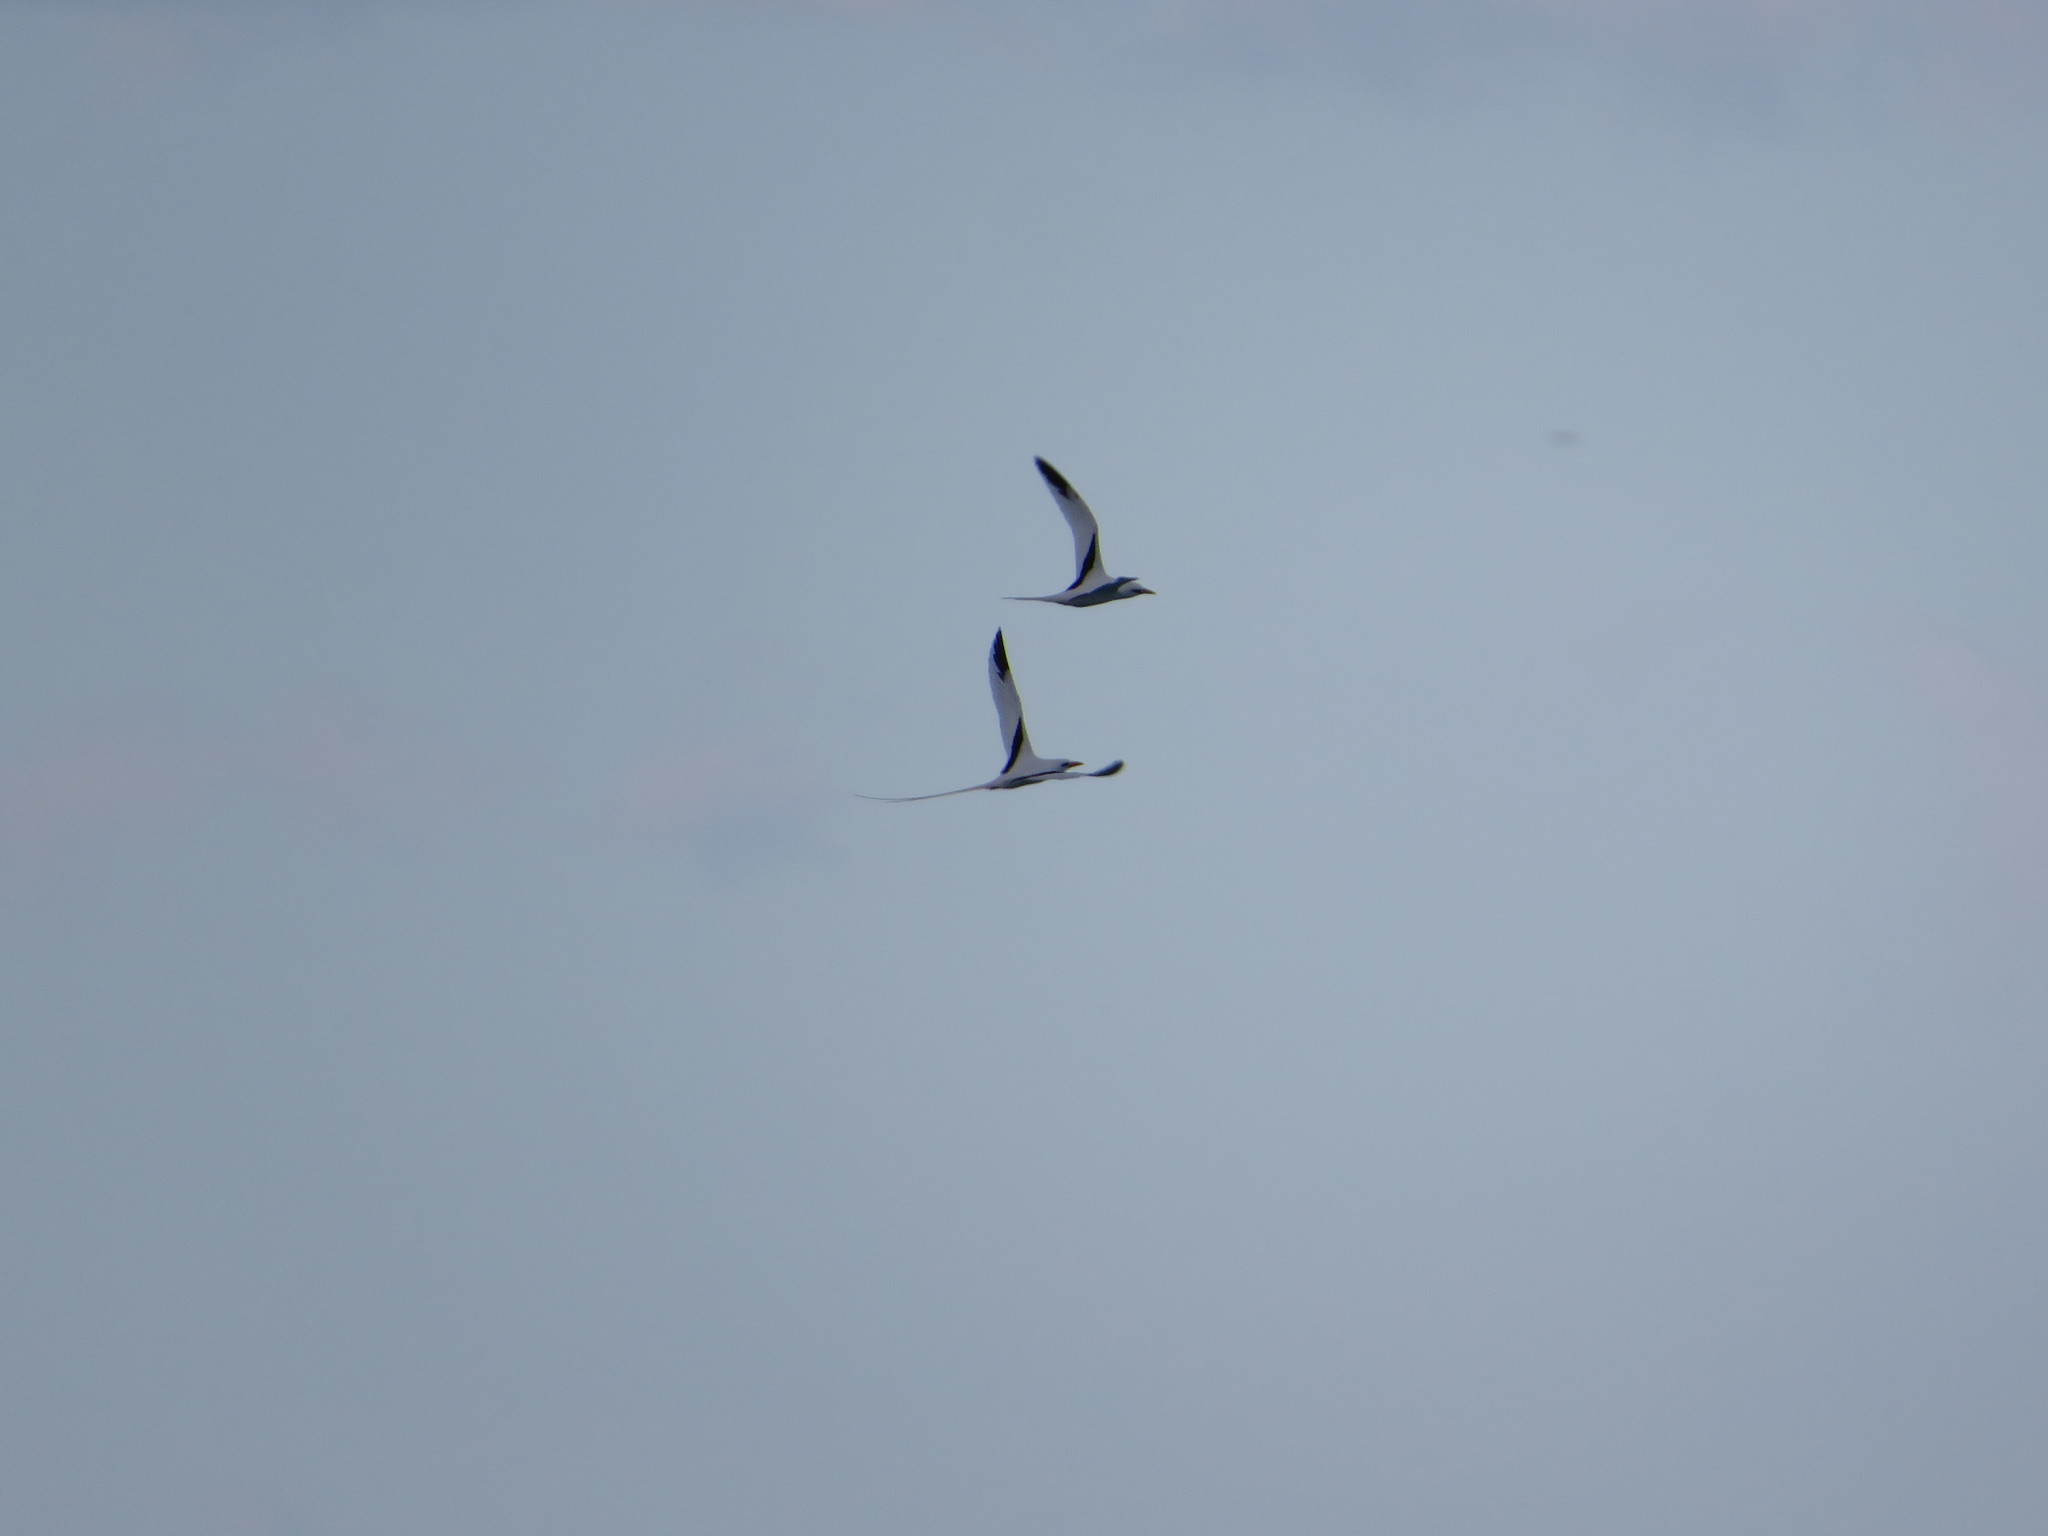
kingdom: Animalia
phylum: Chordata
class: Aves
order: Phaethontiformes
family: Phaethontidae
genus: Phaethon
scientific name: Phaethon lepturus
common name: White-tailed tropicbird
